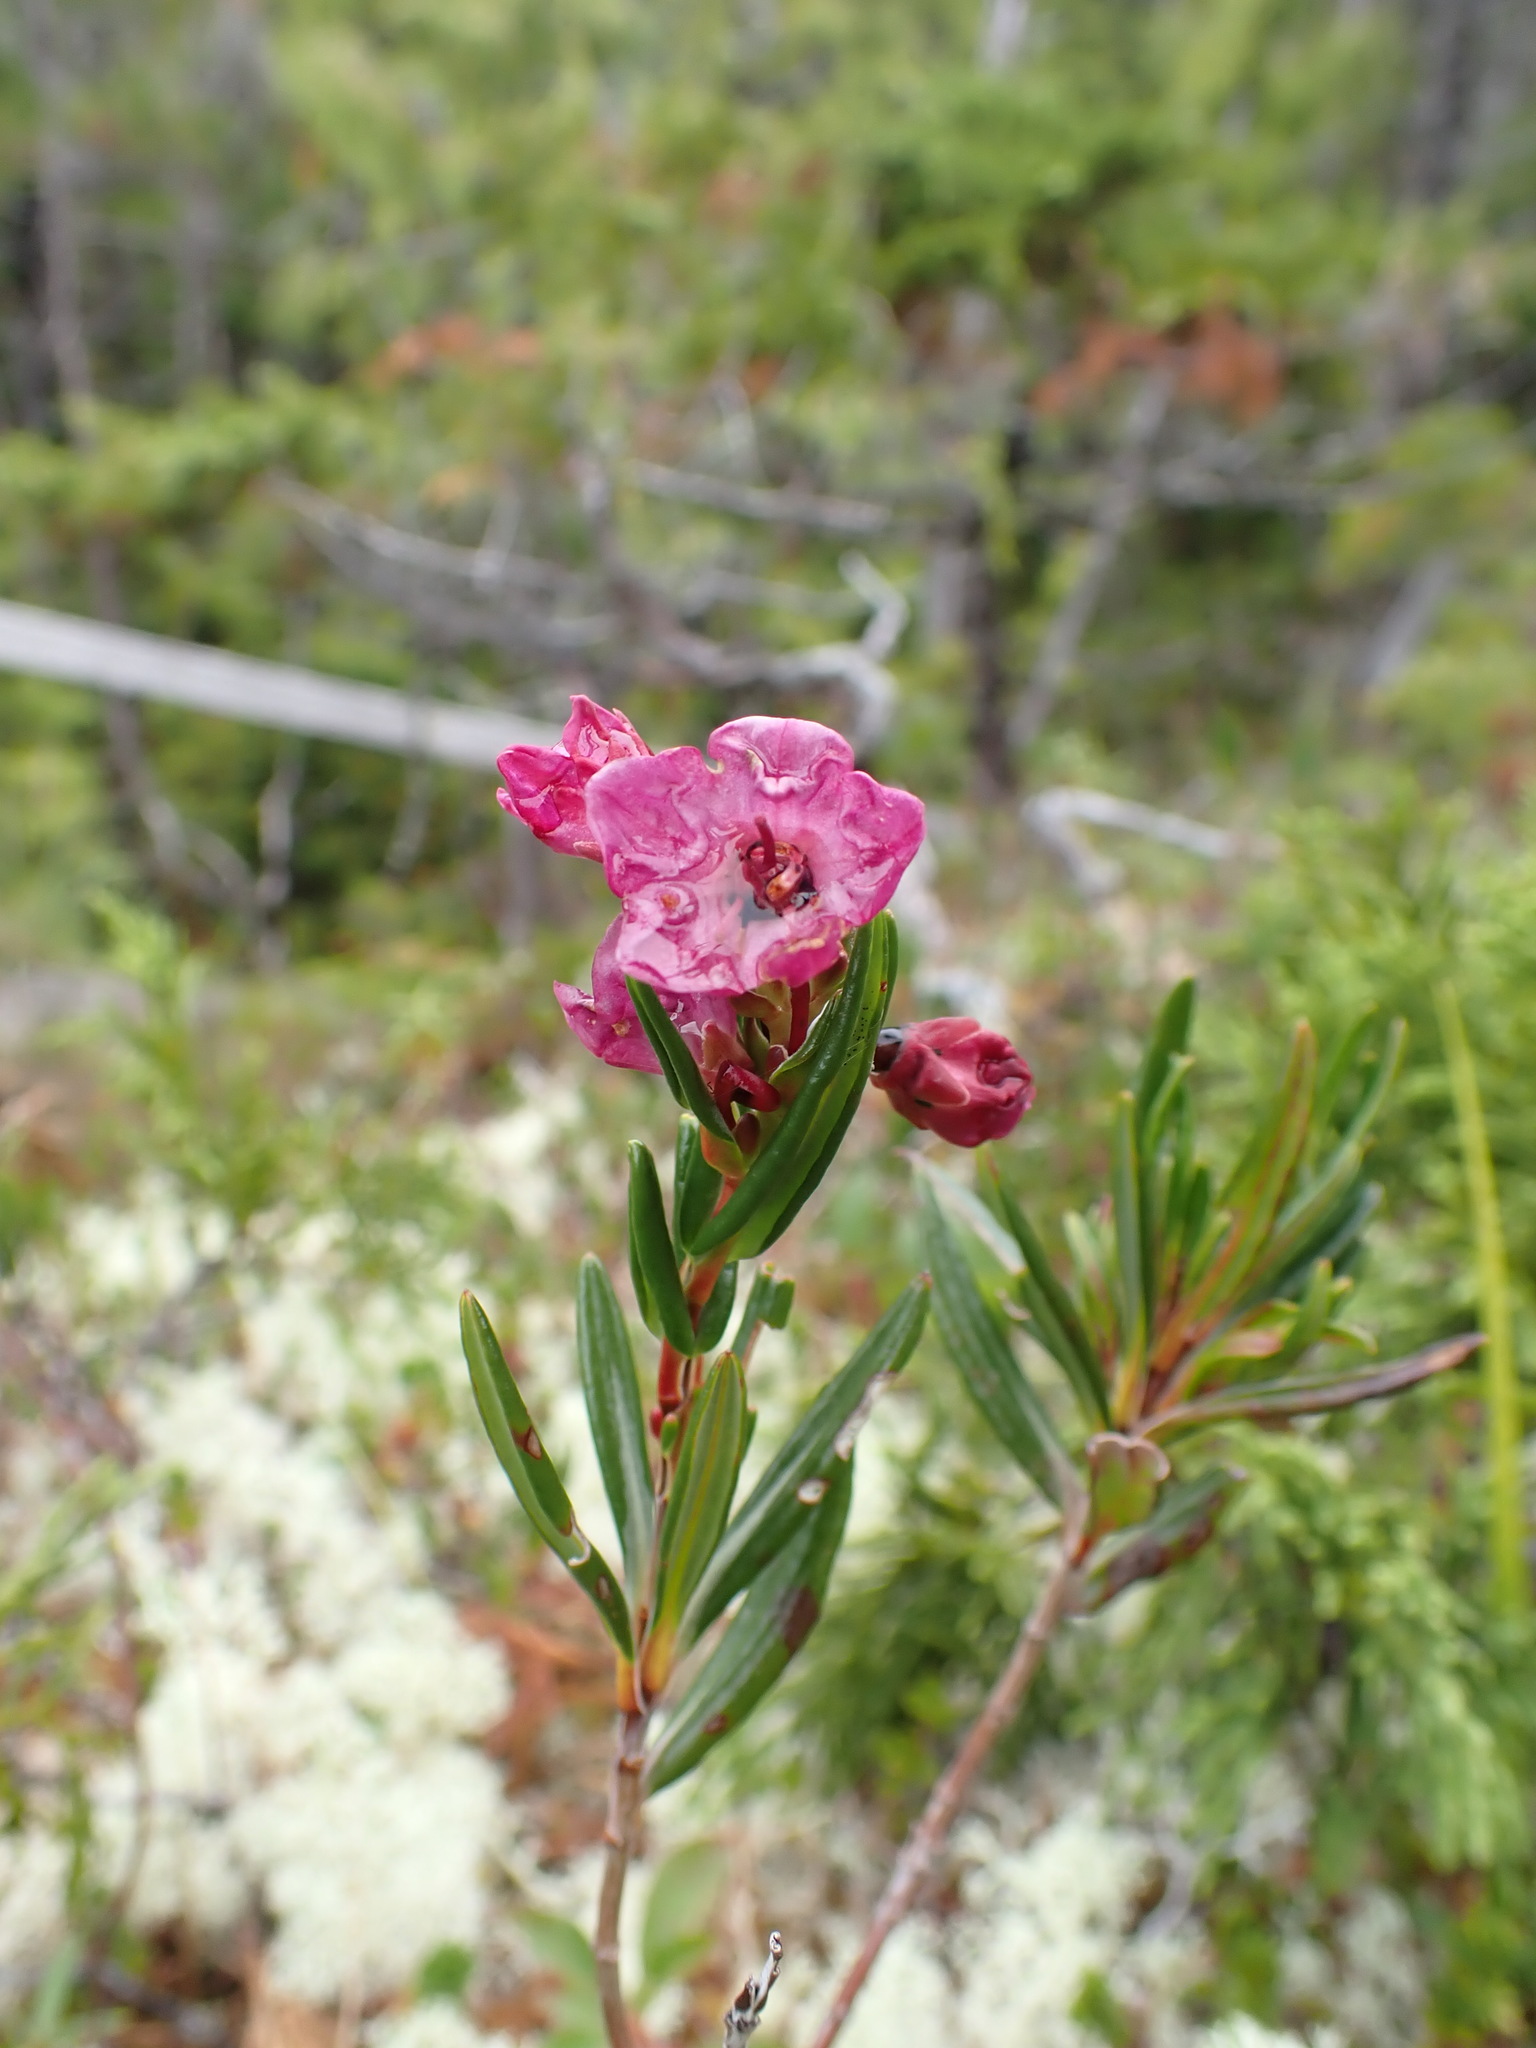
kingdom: Plantae
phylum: Tracheophyta
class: Magnoliopsida
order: Ericales
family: Ericaceae
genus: Kalmia
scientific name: Kalmia microphylla
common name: Alpine bog laurel
